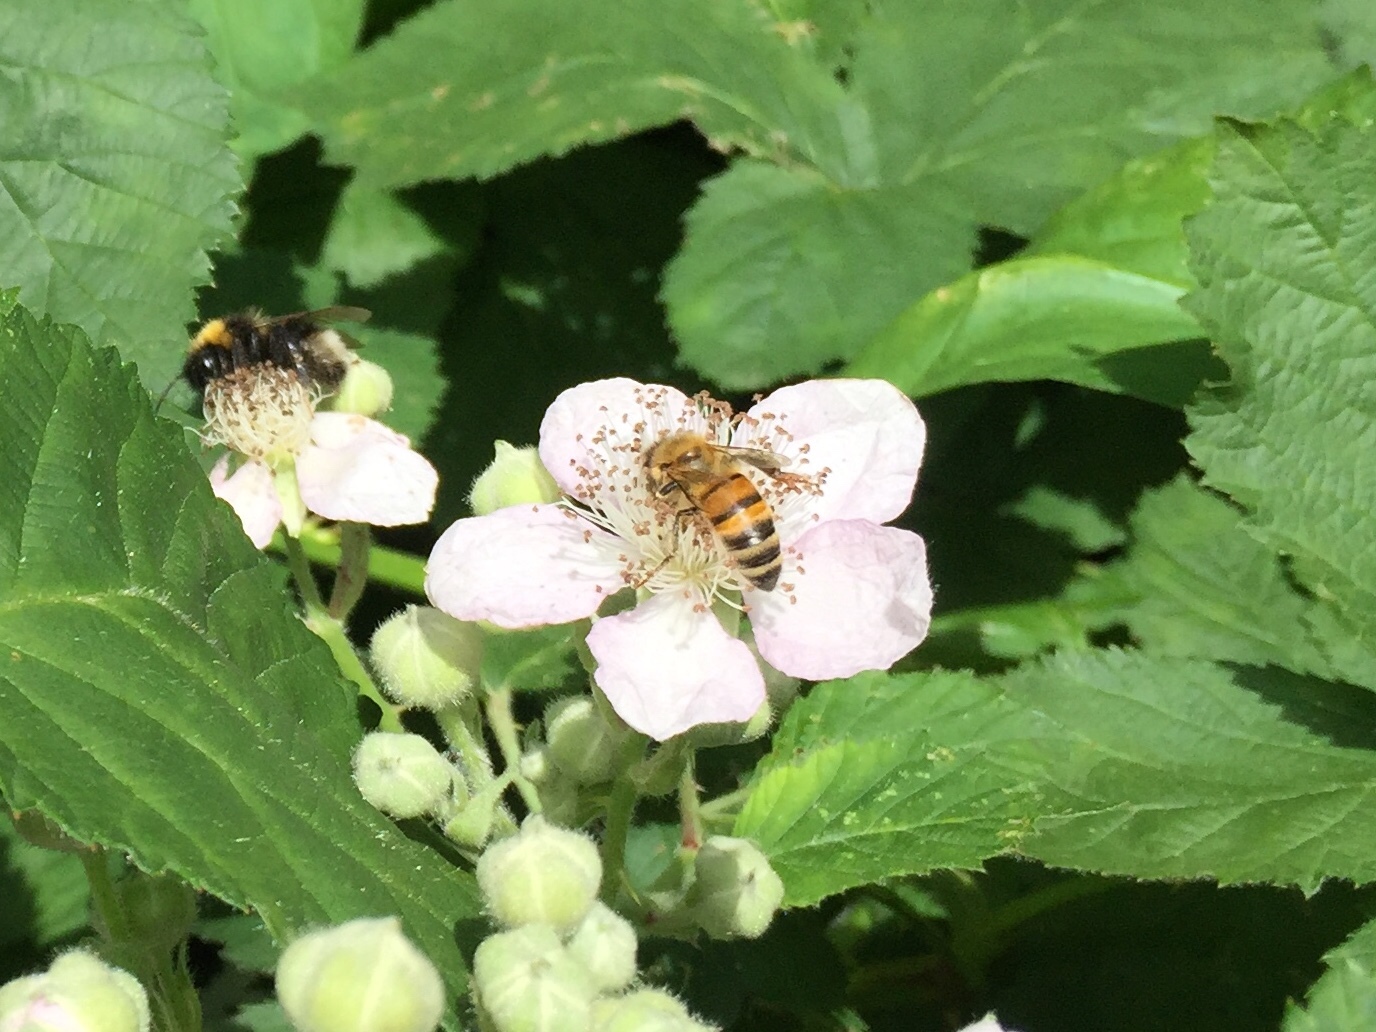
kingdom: Animalia
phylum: Arthropoda
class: Insecta
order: Hymenoptera
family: Apidae
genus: Apis
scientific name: Apis mellifera
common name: Honey bee
